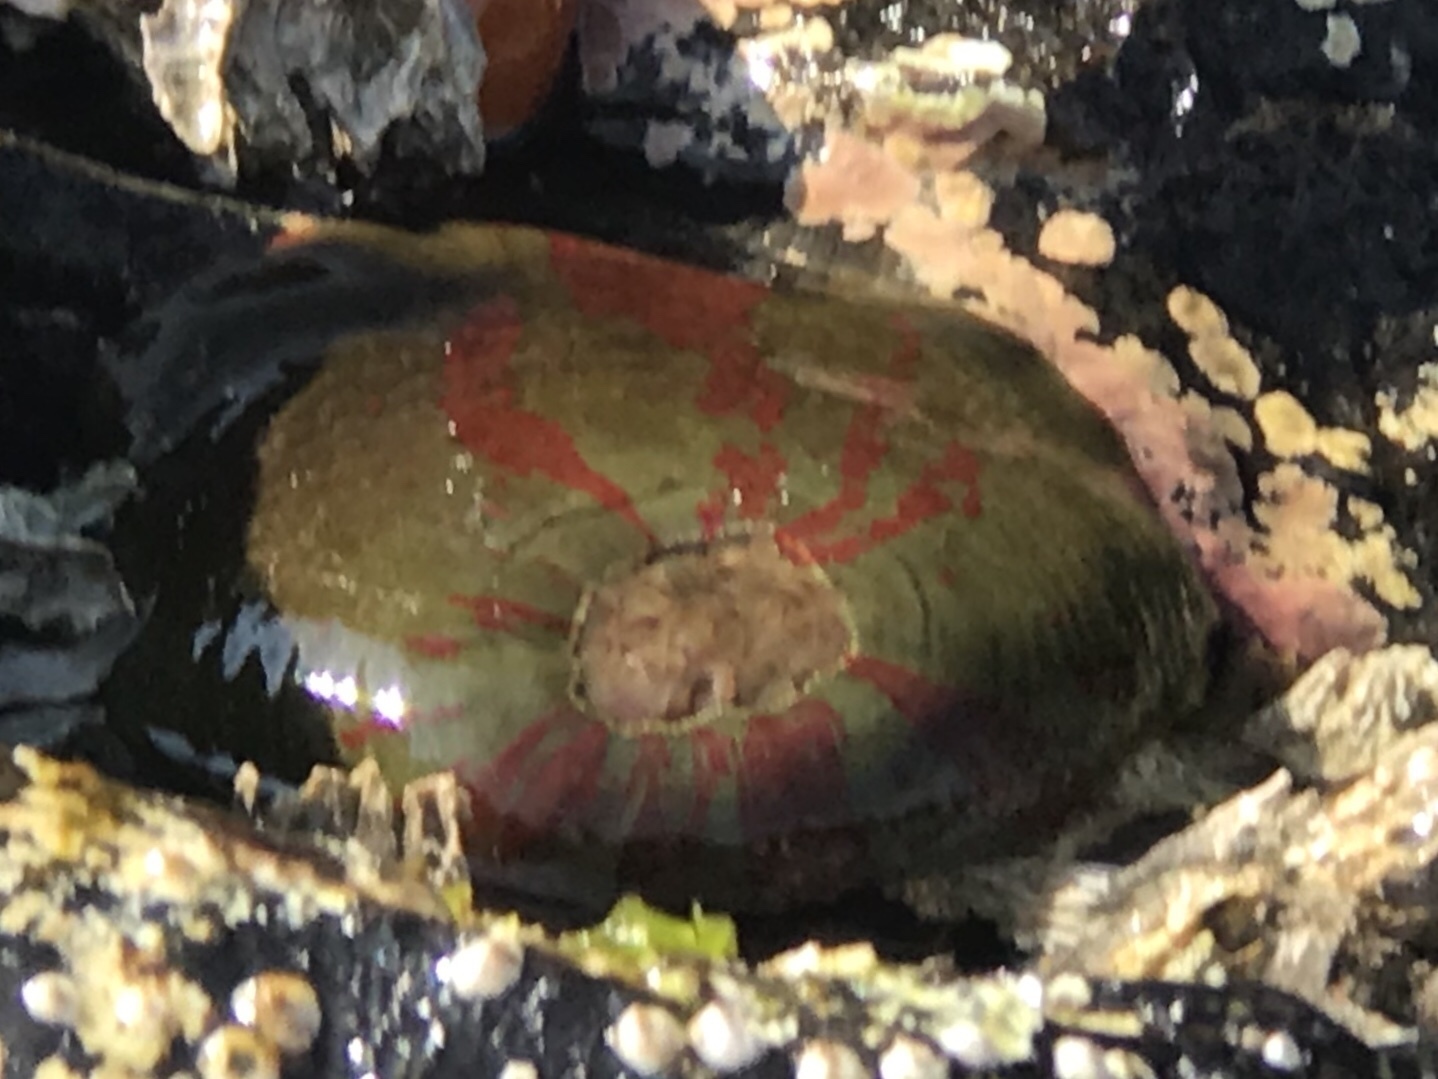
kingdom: Animalia
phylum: Cnidaria
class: Anthozoa
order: Actiniaria
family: Actiniidae
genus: Urticina
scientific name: Urticina grebelnyi
